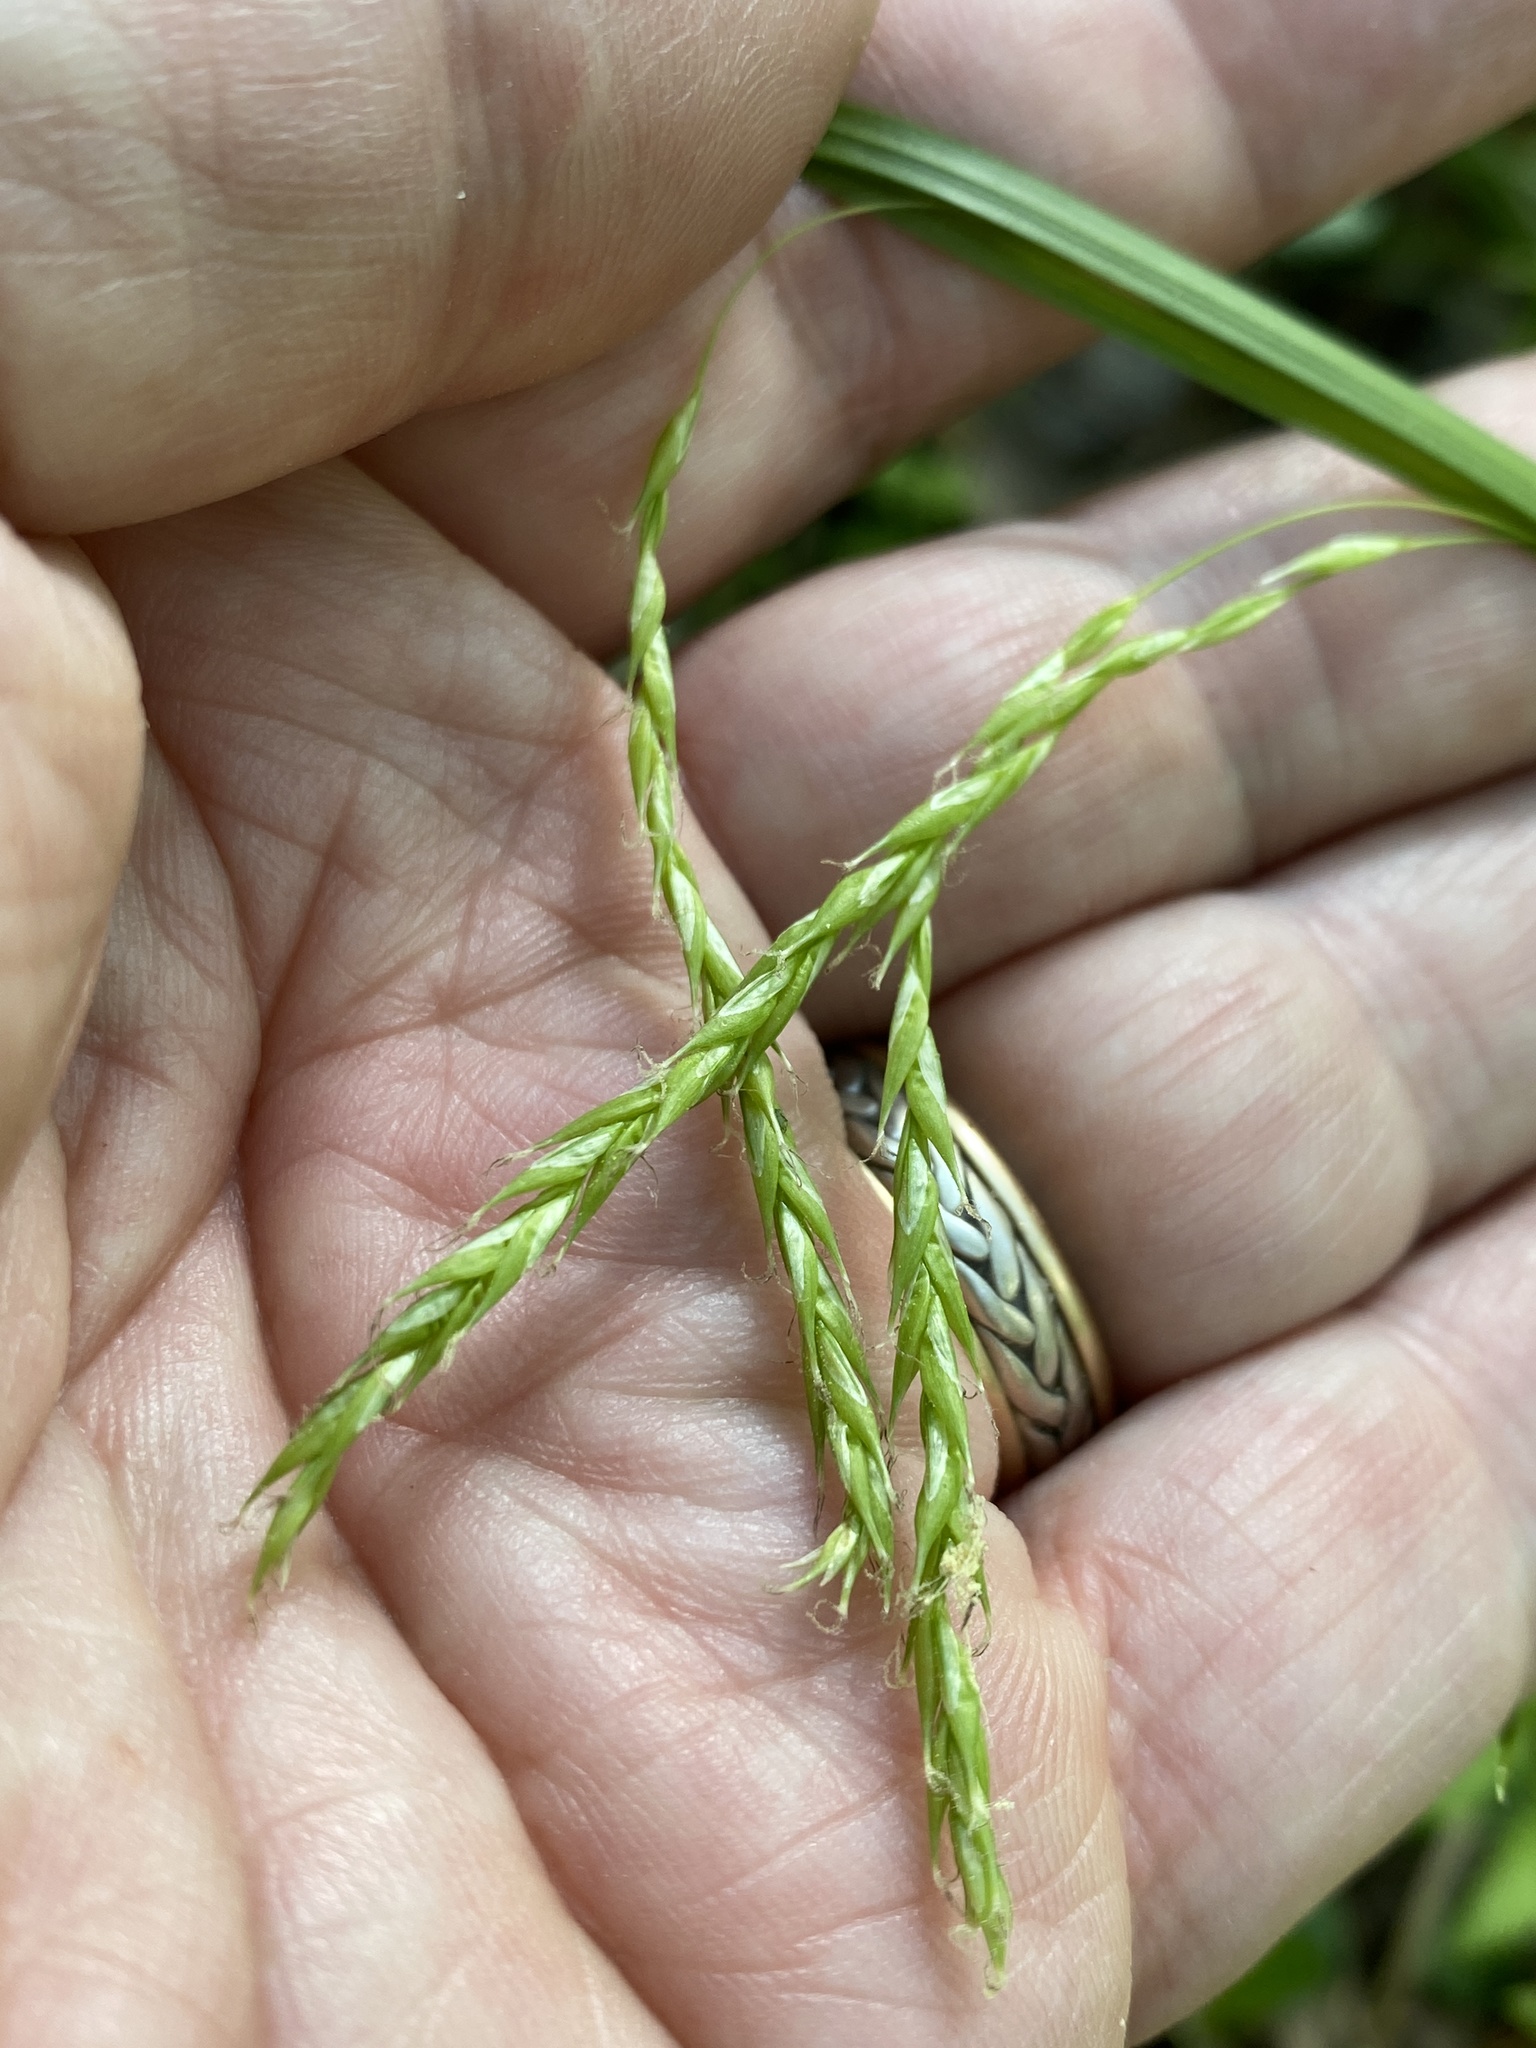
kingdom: Plantae
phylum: Tracheophyta
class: Liliopsida
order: Poales
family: Cyperaceae
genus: Carex
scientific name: Carex debilis
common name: White-edge sedge
